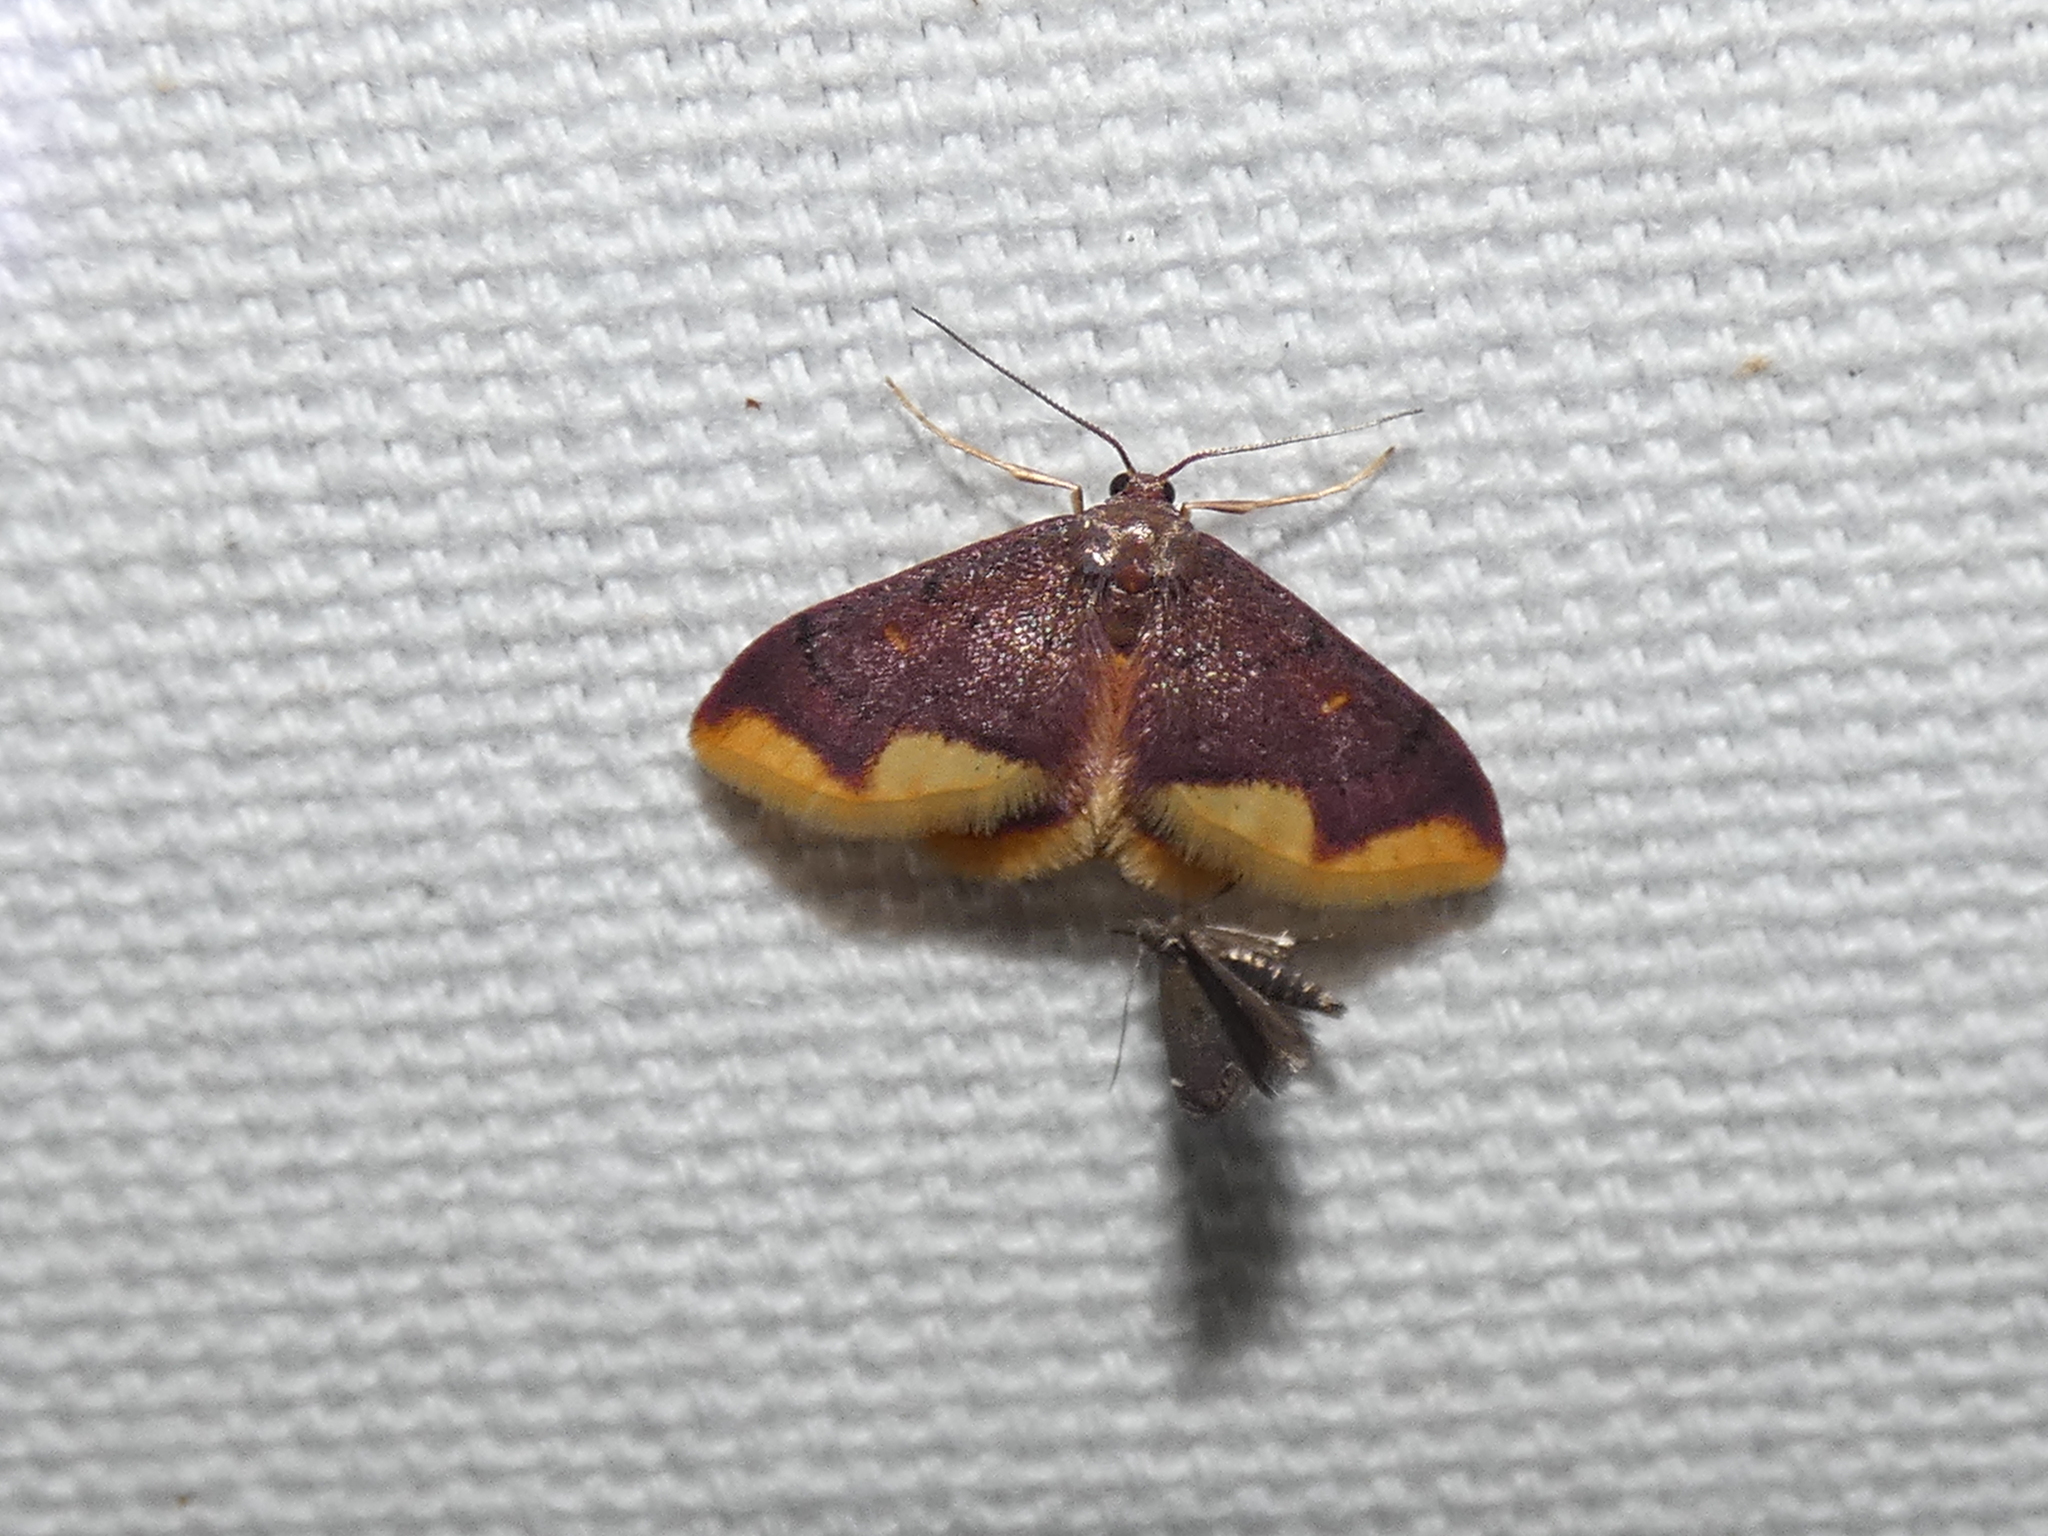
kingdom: Animalia
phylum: Arthropoda
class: Insecta
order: Lepidoptera
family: Geometridae
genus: Lophosis
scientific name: Lophosis labeculata
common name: Stained lophosis moth
